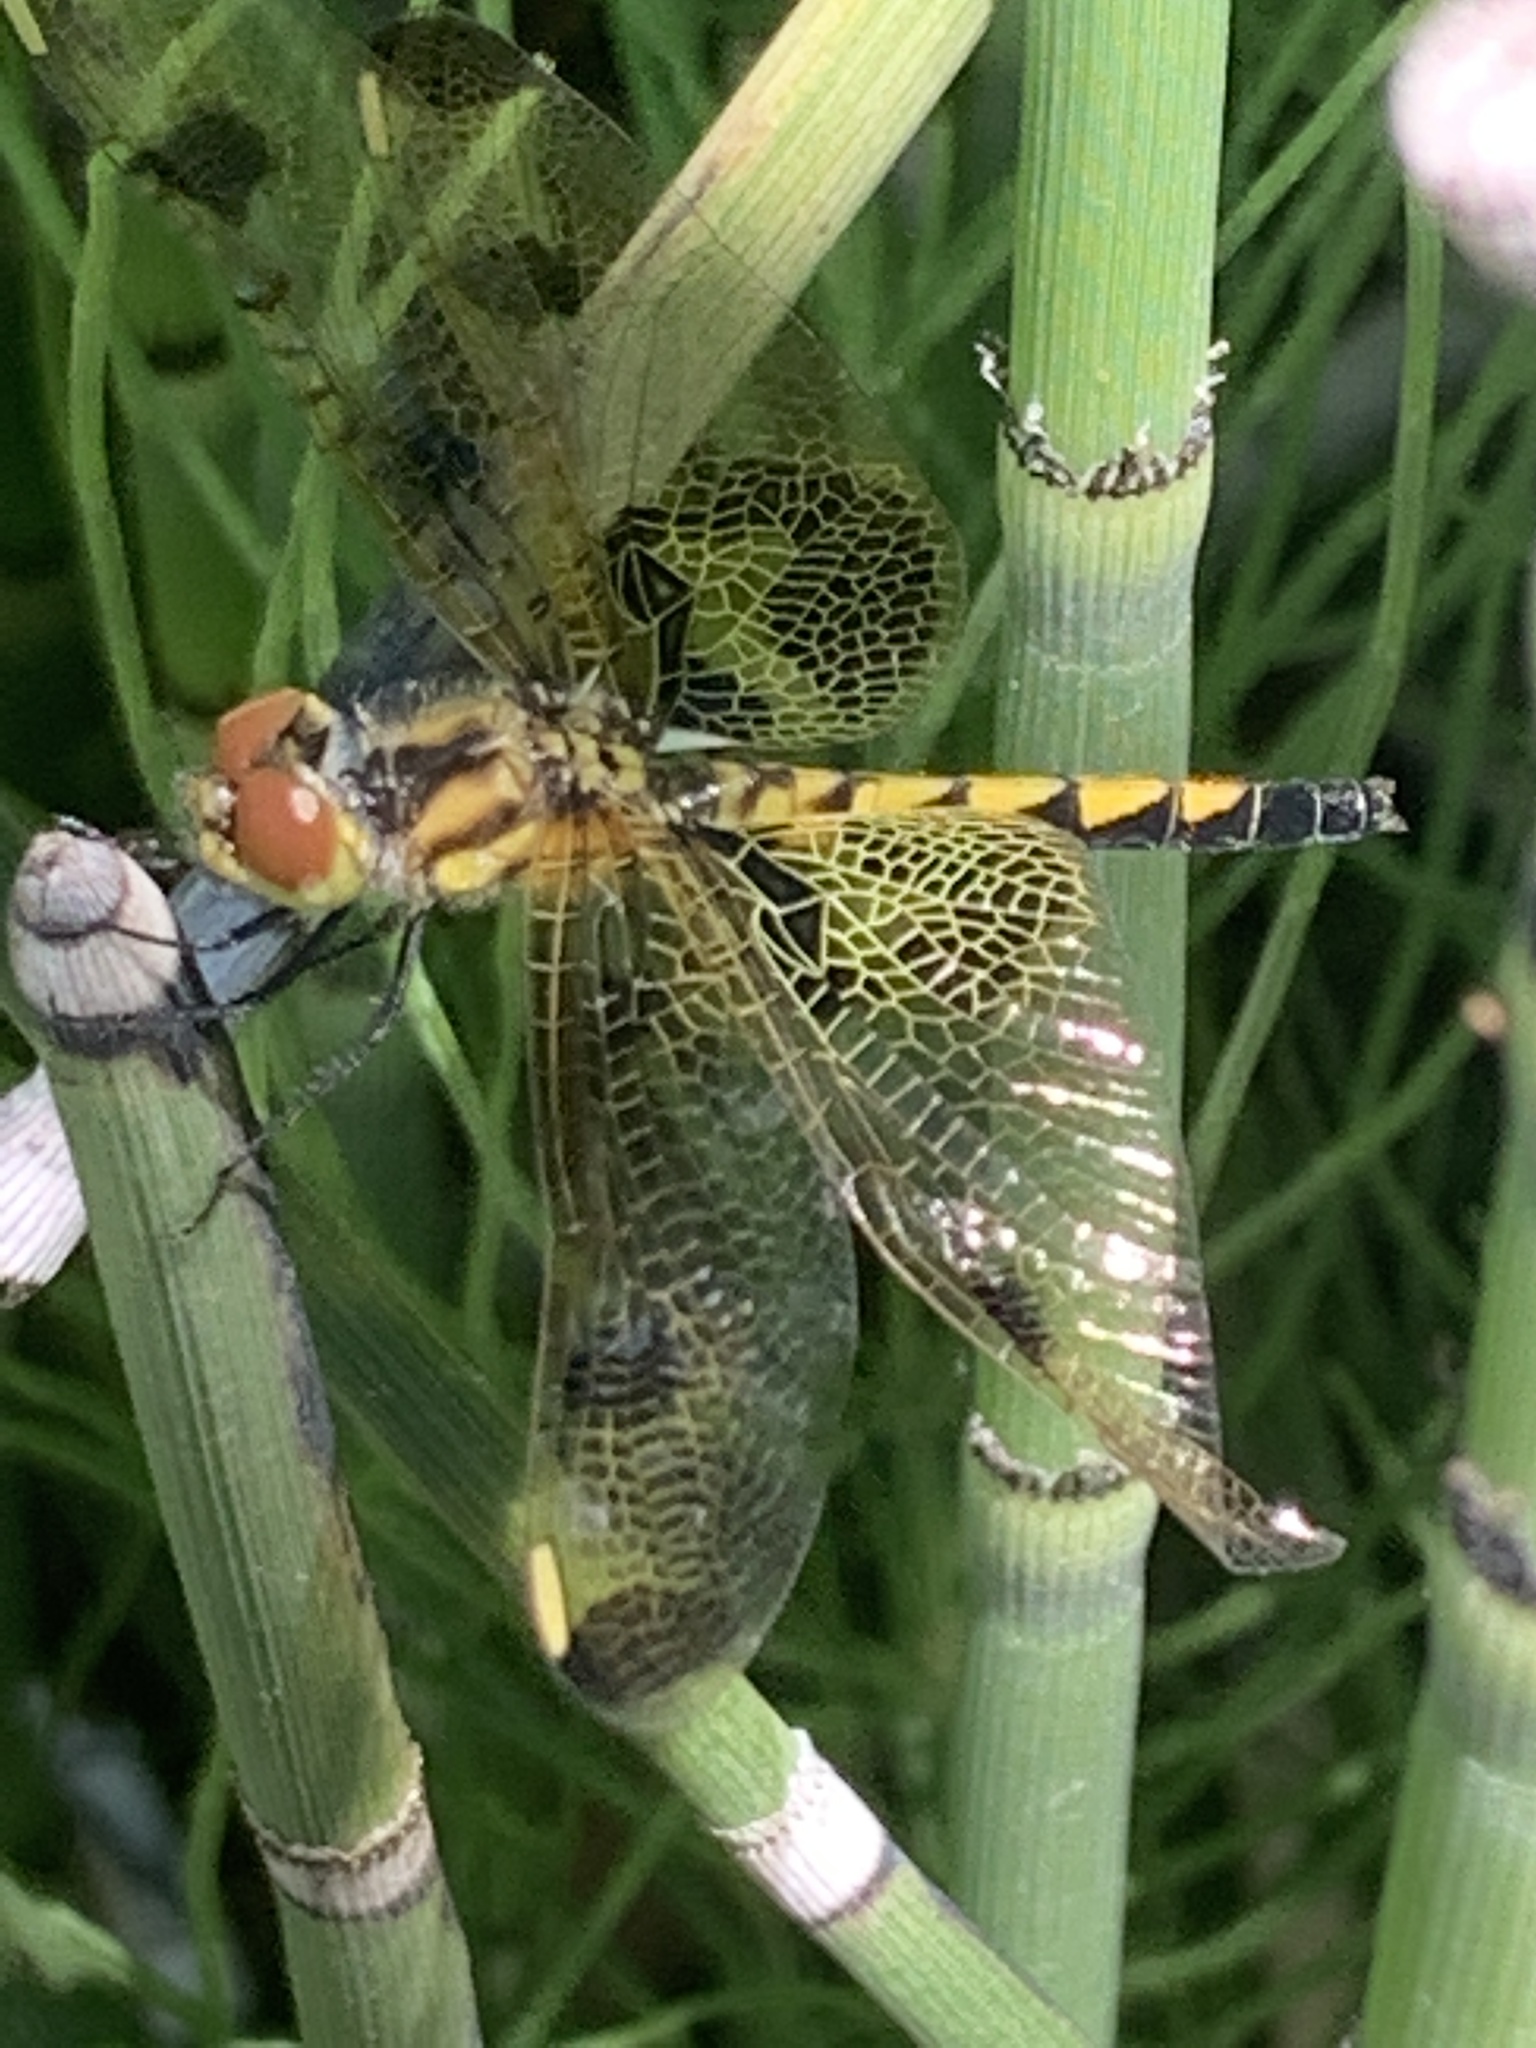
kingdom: Animalia
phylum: Arthropoda
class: Insecta
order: Odonata
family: Libellulidae
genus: Celithemis
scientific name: Celithemis elisa
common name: Calico pennant
